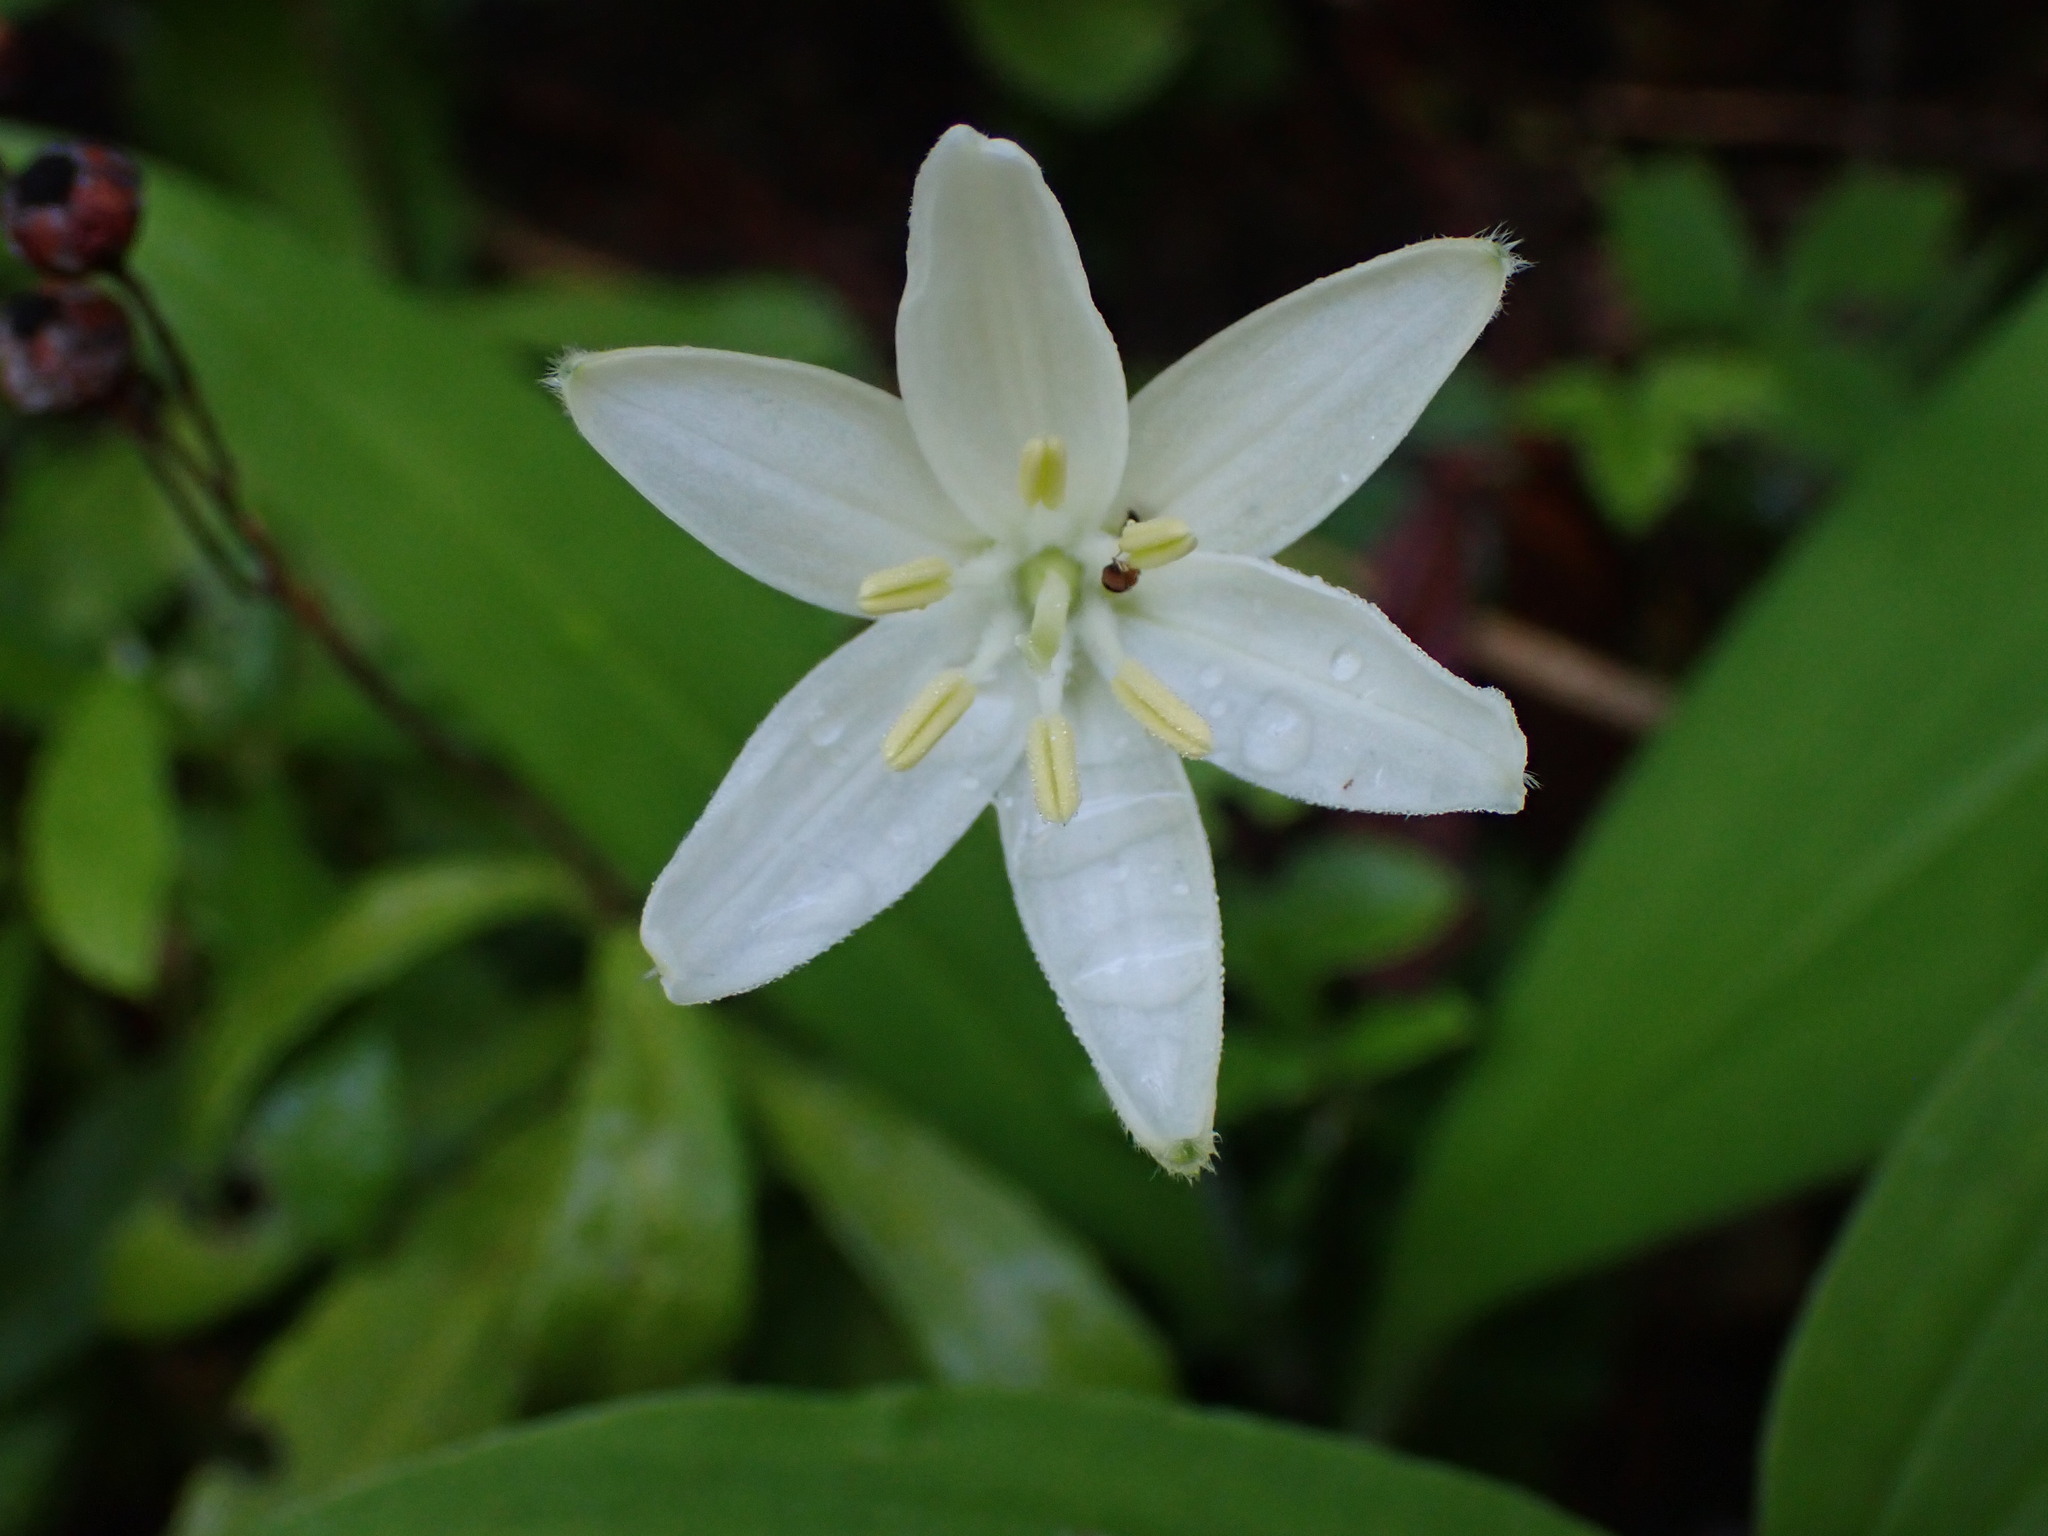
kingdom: Plantae
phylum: Tracheophyta
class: Liliopsida
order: Liliales
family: Liliaceae
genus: Clintonia
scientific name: Clintonia uniflora
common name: Queen's cup
